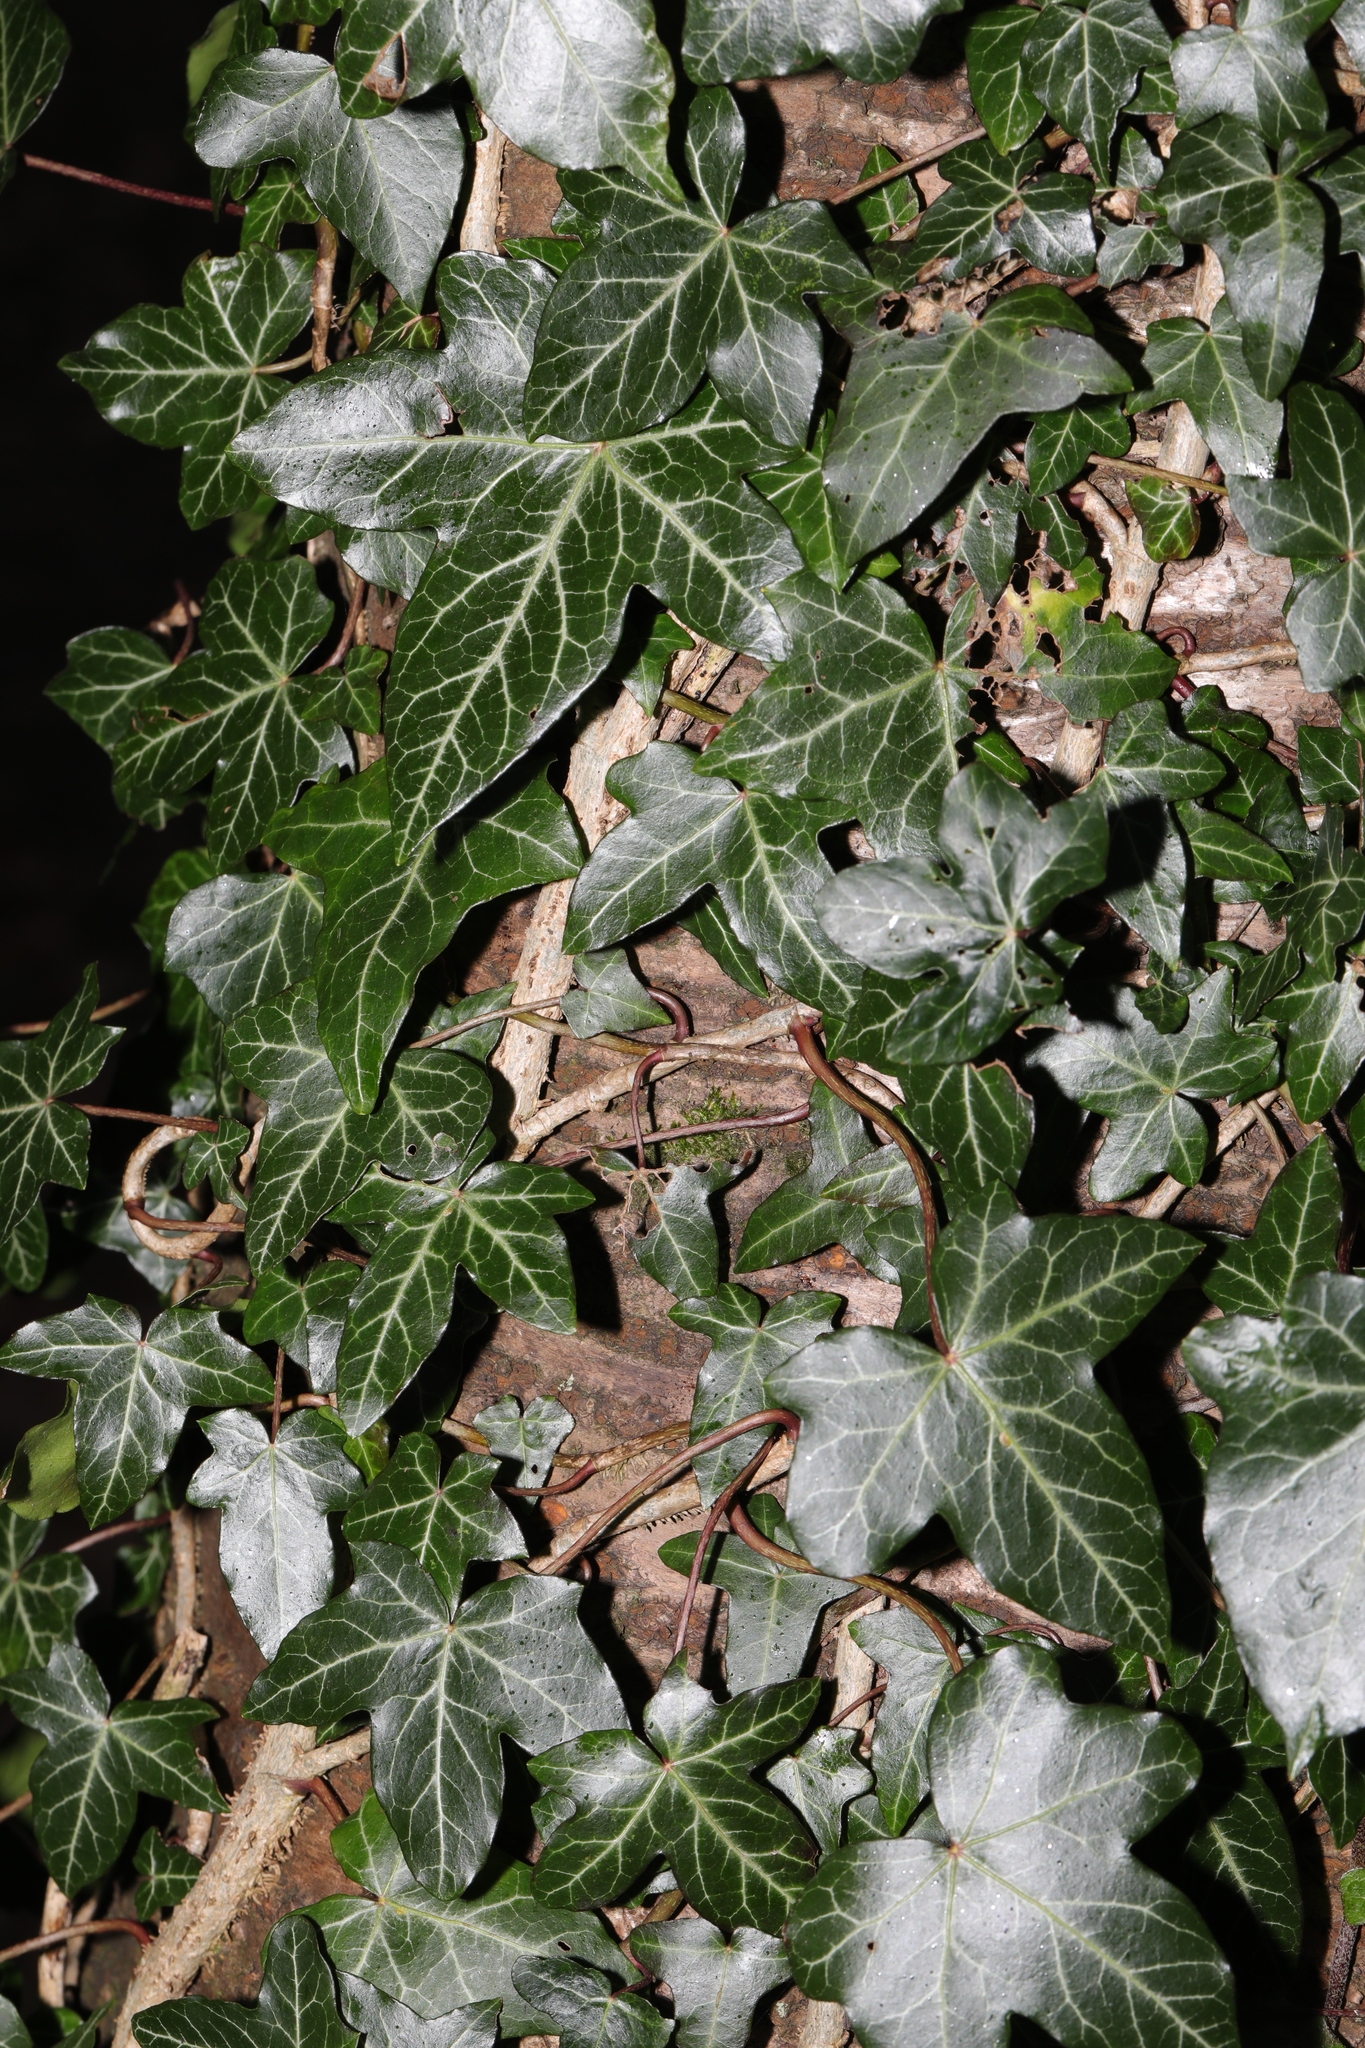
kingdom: Plantae
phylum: Tracheophyta
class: Magnoliopsida
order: Apiales
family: Araliaceae
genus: Hedera
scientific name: Hedera helix
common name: Ivy
